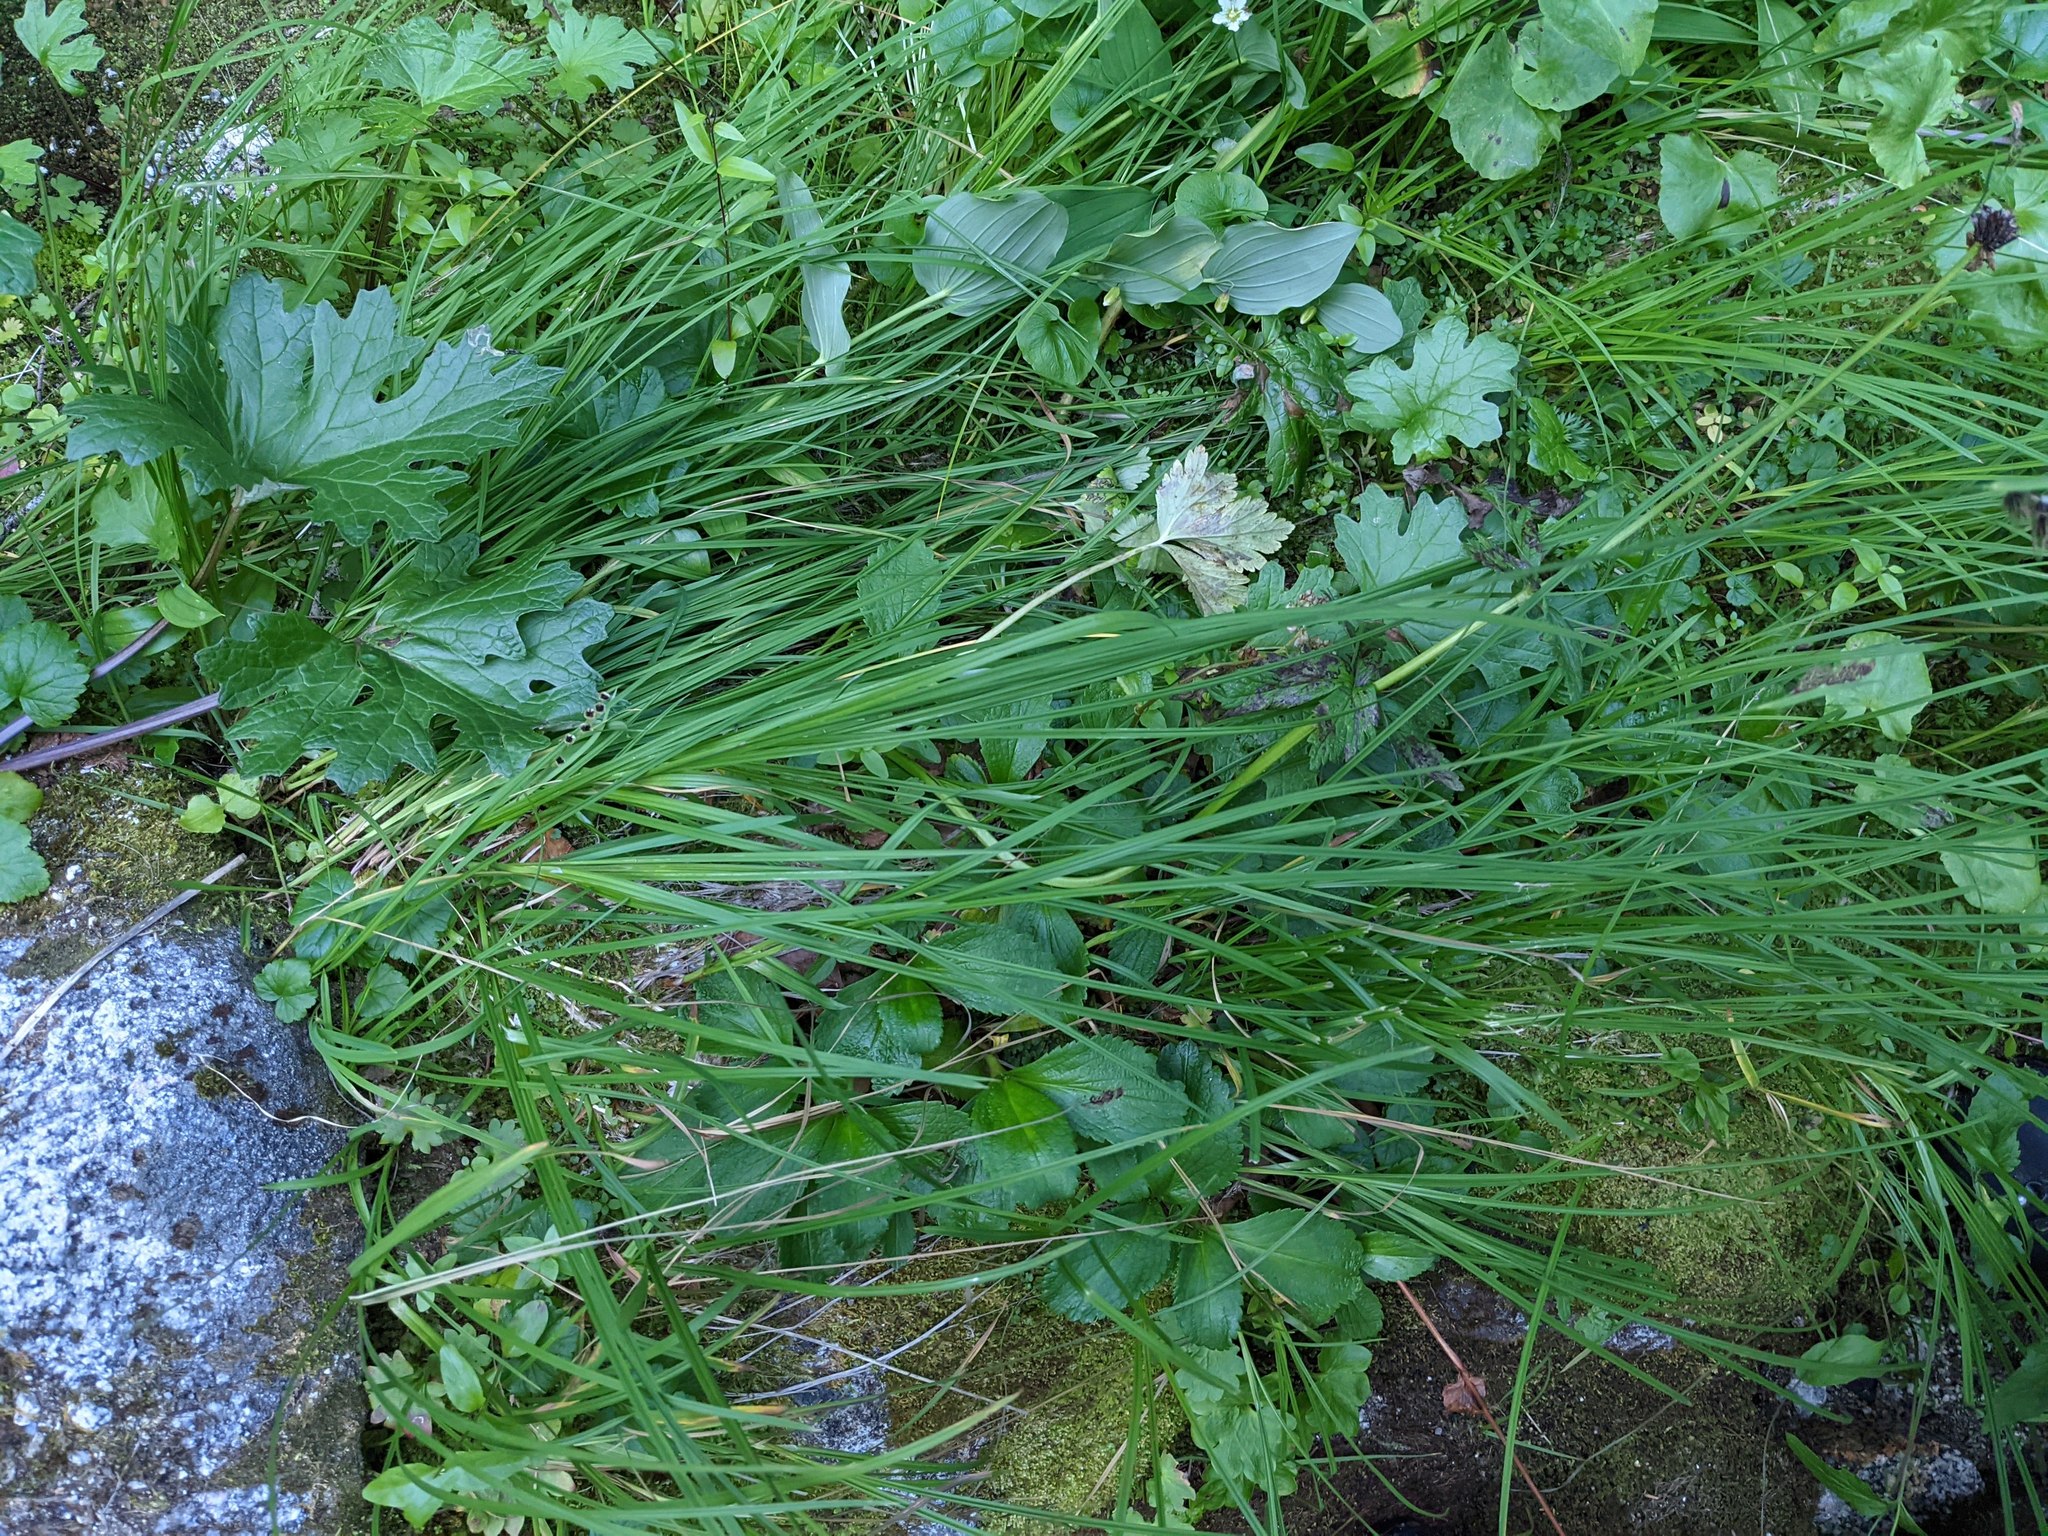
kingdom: Plantae
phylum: Tracheophyta
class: Liliopsida
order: Poales
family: Cyperaceae
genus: Carex
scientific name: Carex macrochaeta
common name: Alaska large awn sedge
